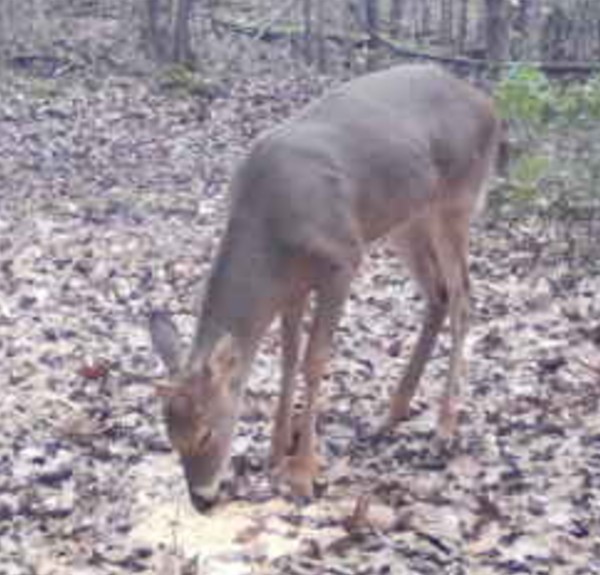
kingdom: Animalia
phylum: Chordata
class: Mammalia
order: Artiodactyla
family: Cervidae
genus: Odocoileus
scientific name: Odocoileus virginianus
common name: White-tailed deer
